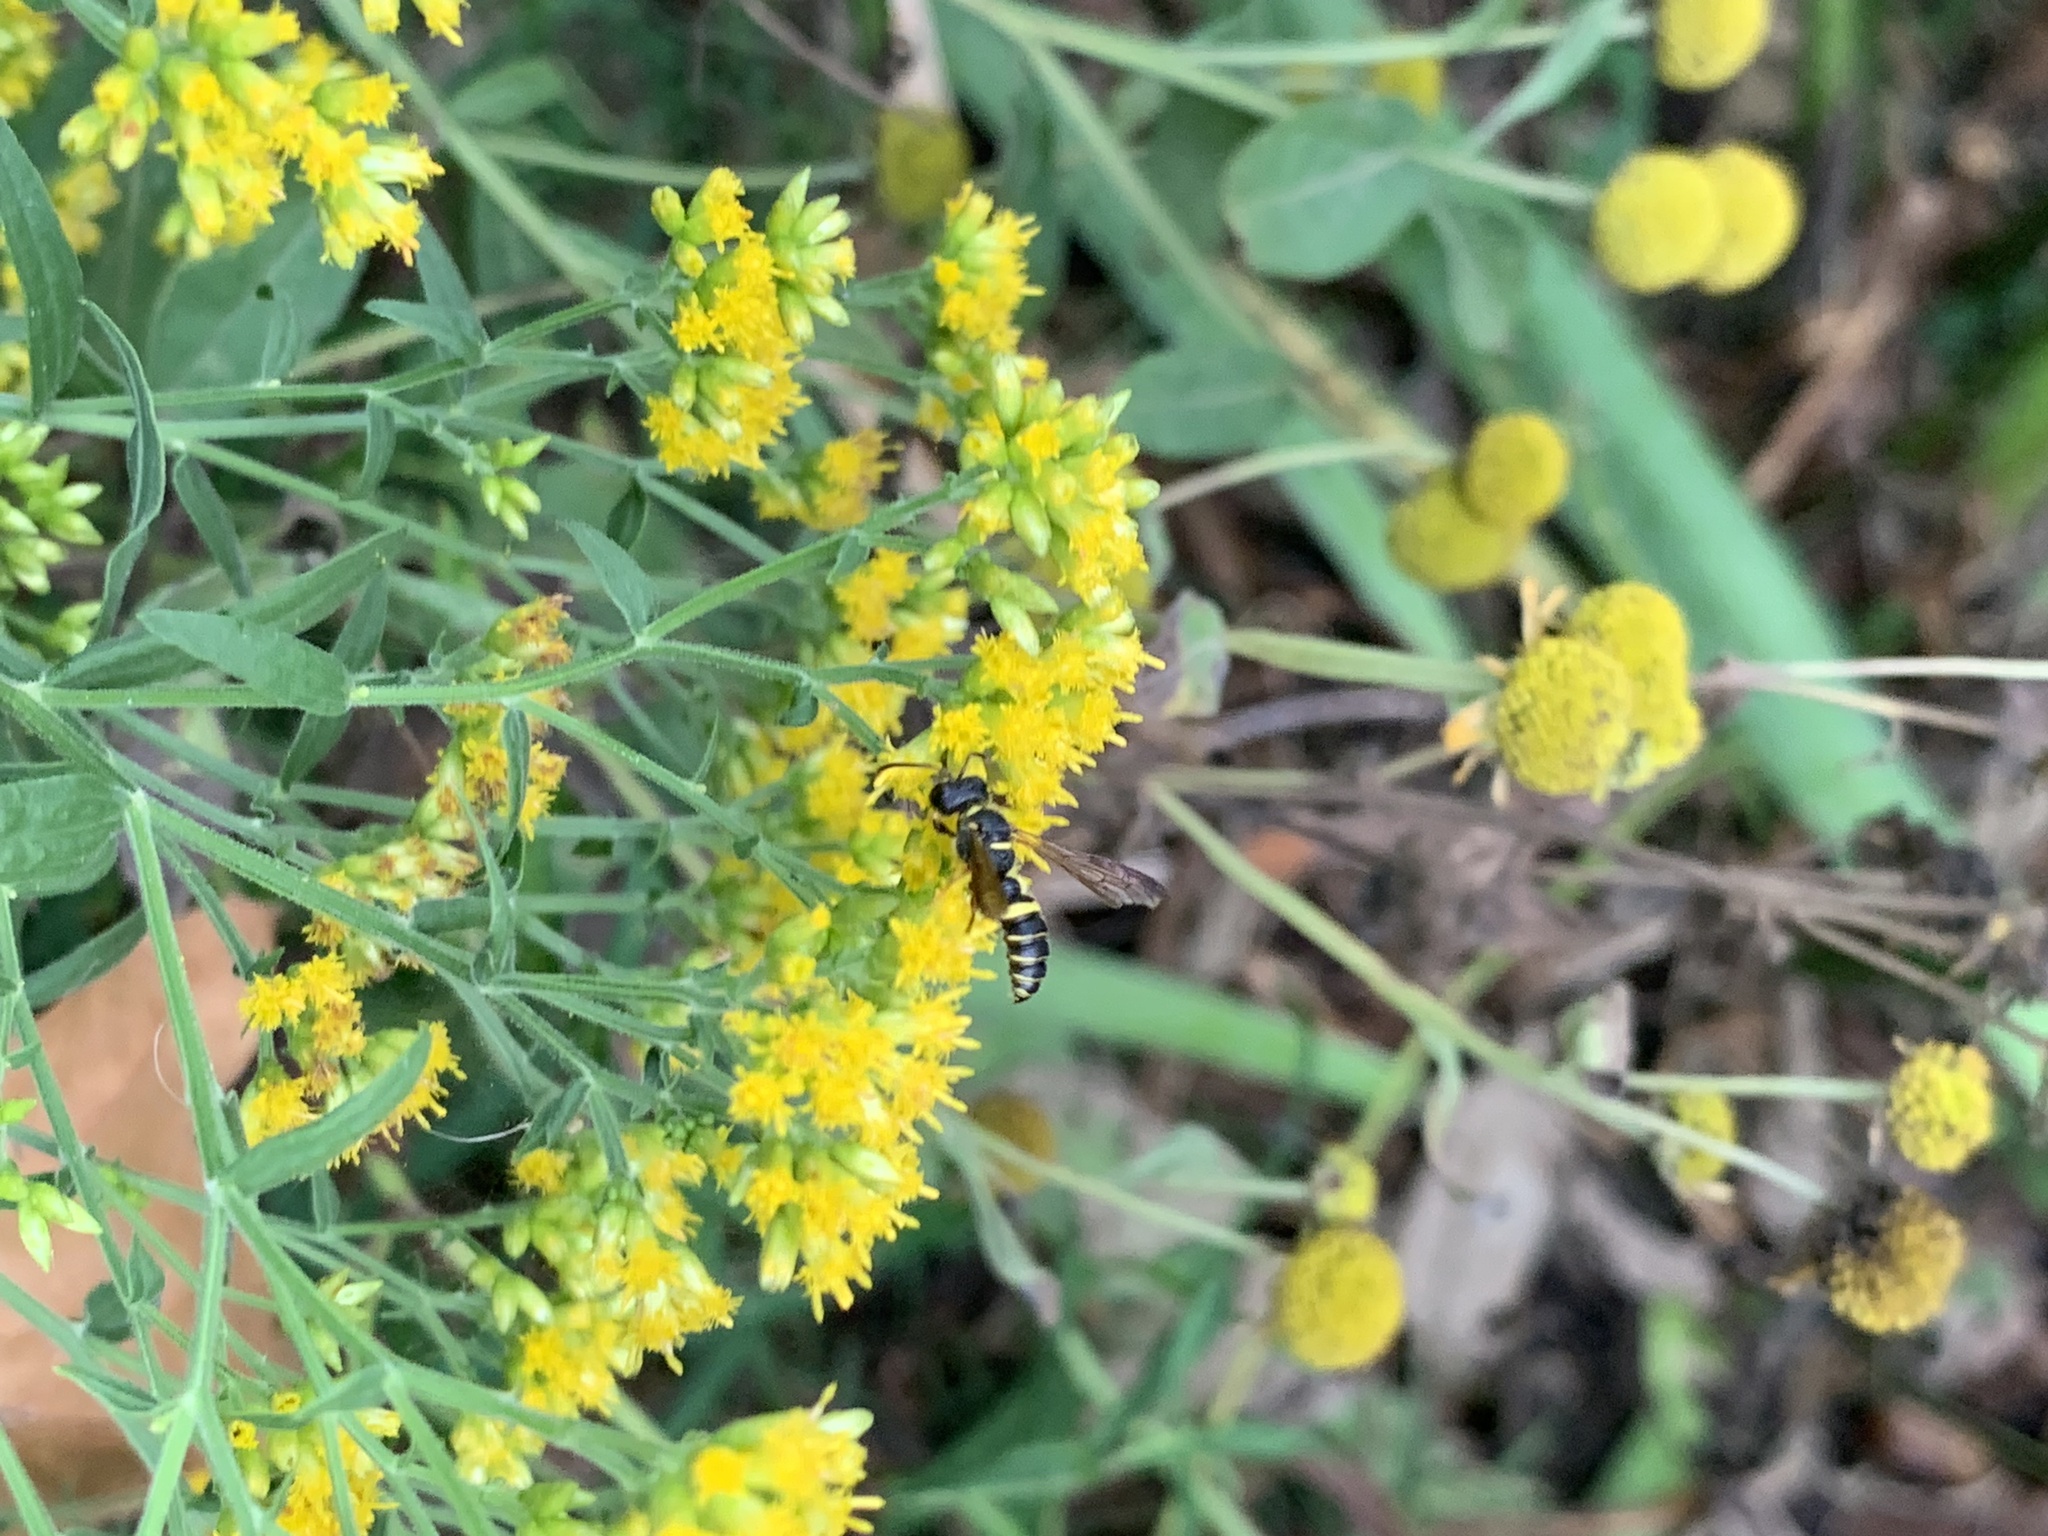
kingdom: Animalia
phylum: Arthropoda
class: Insecta
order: Hymenoptera
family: Crabronidae
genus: Cerceris
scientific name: Cerceris
